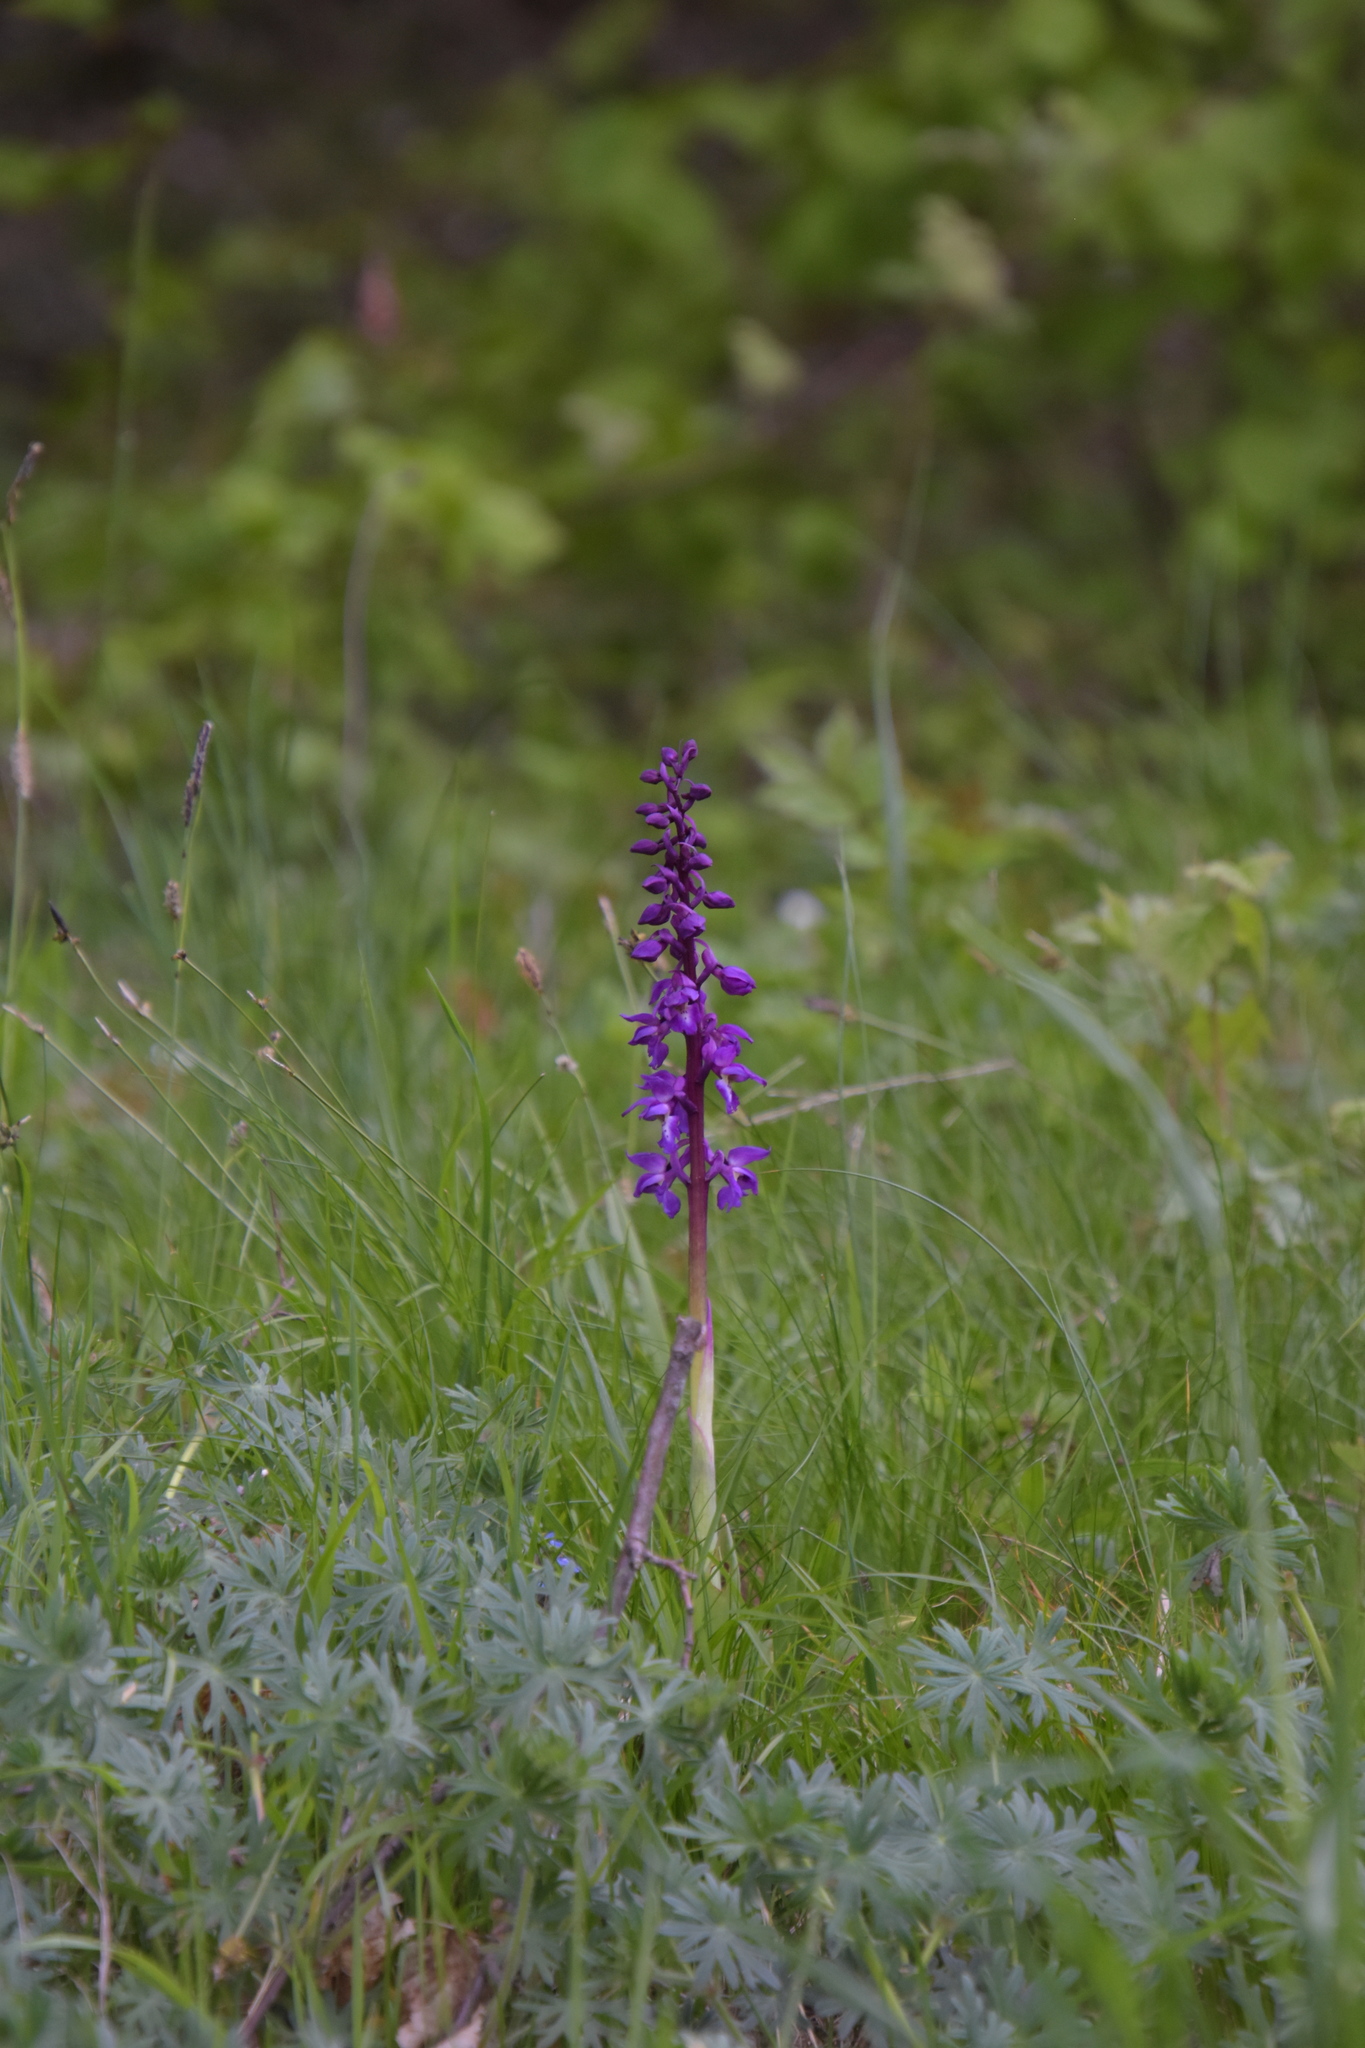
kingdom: Plantae
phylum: Tracheophyta
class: Liliopsida
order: Asparagales
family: Orchidaceae
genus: Orchis
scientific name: Orchis mascula
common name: Early-purple orchid
